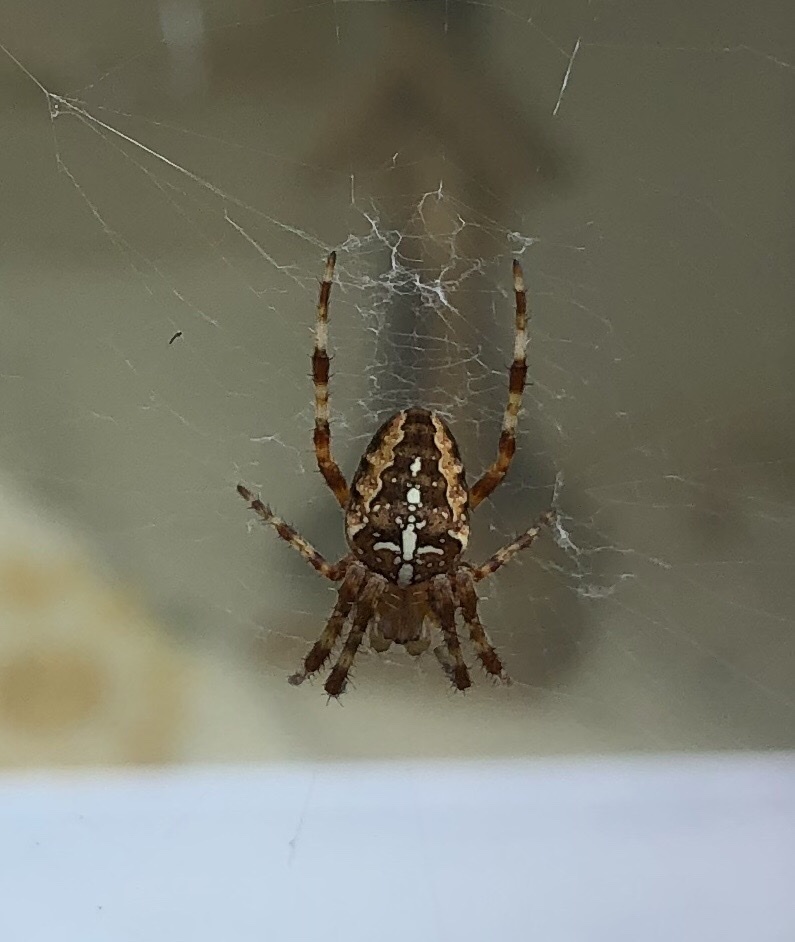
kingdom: Animalia
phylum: Arthropoda
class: Arachnida
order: Araneae
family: Araneidae
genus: Araneus
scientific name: Araneus diadematus
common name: Cross orbweaver
